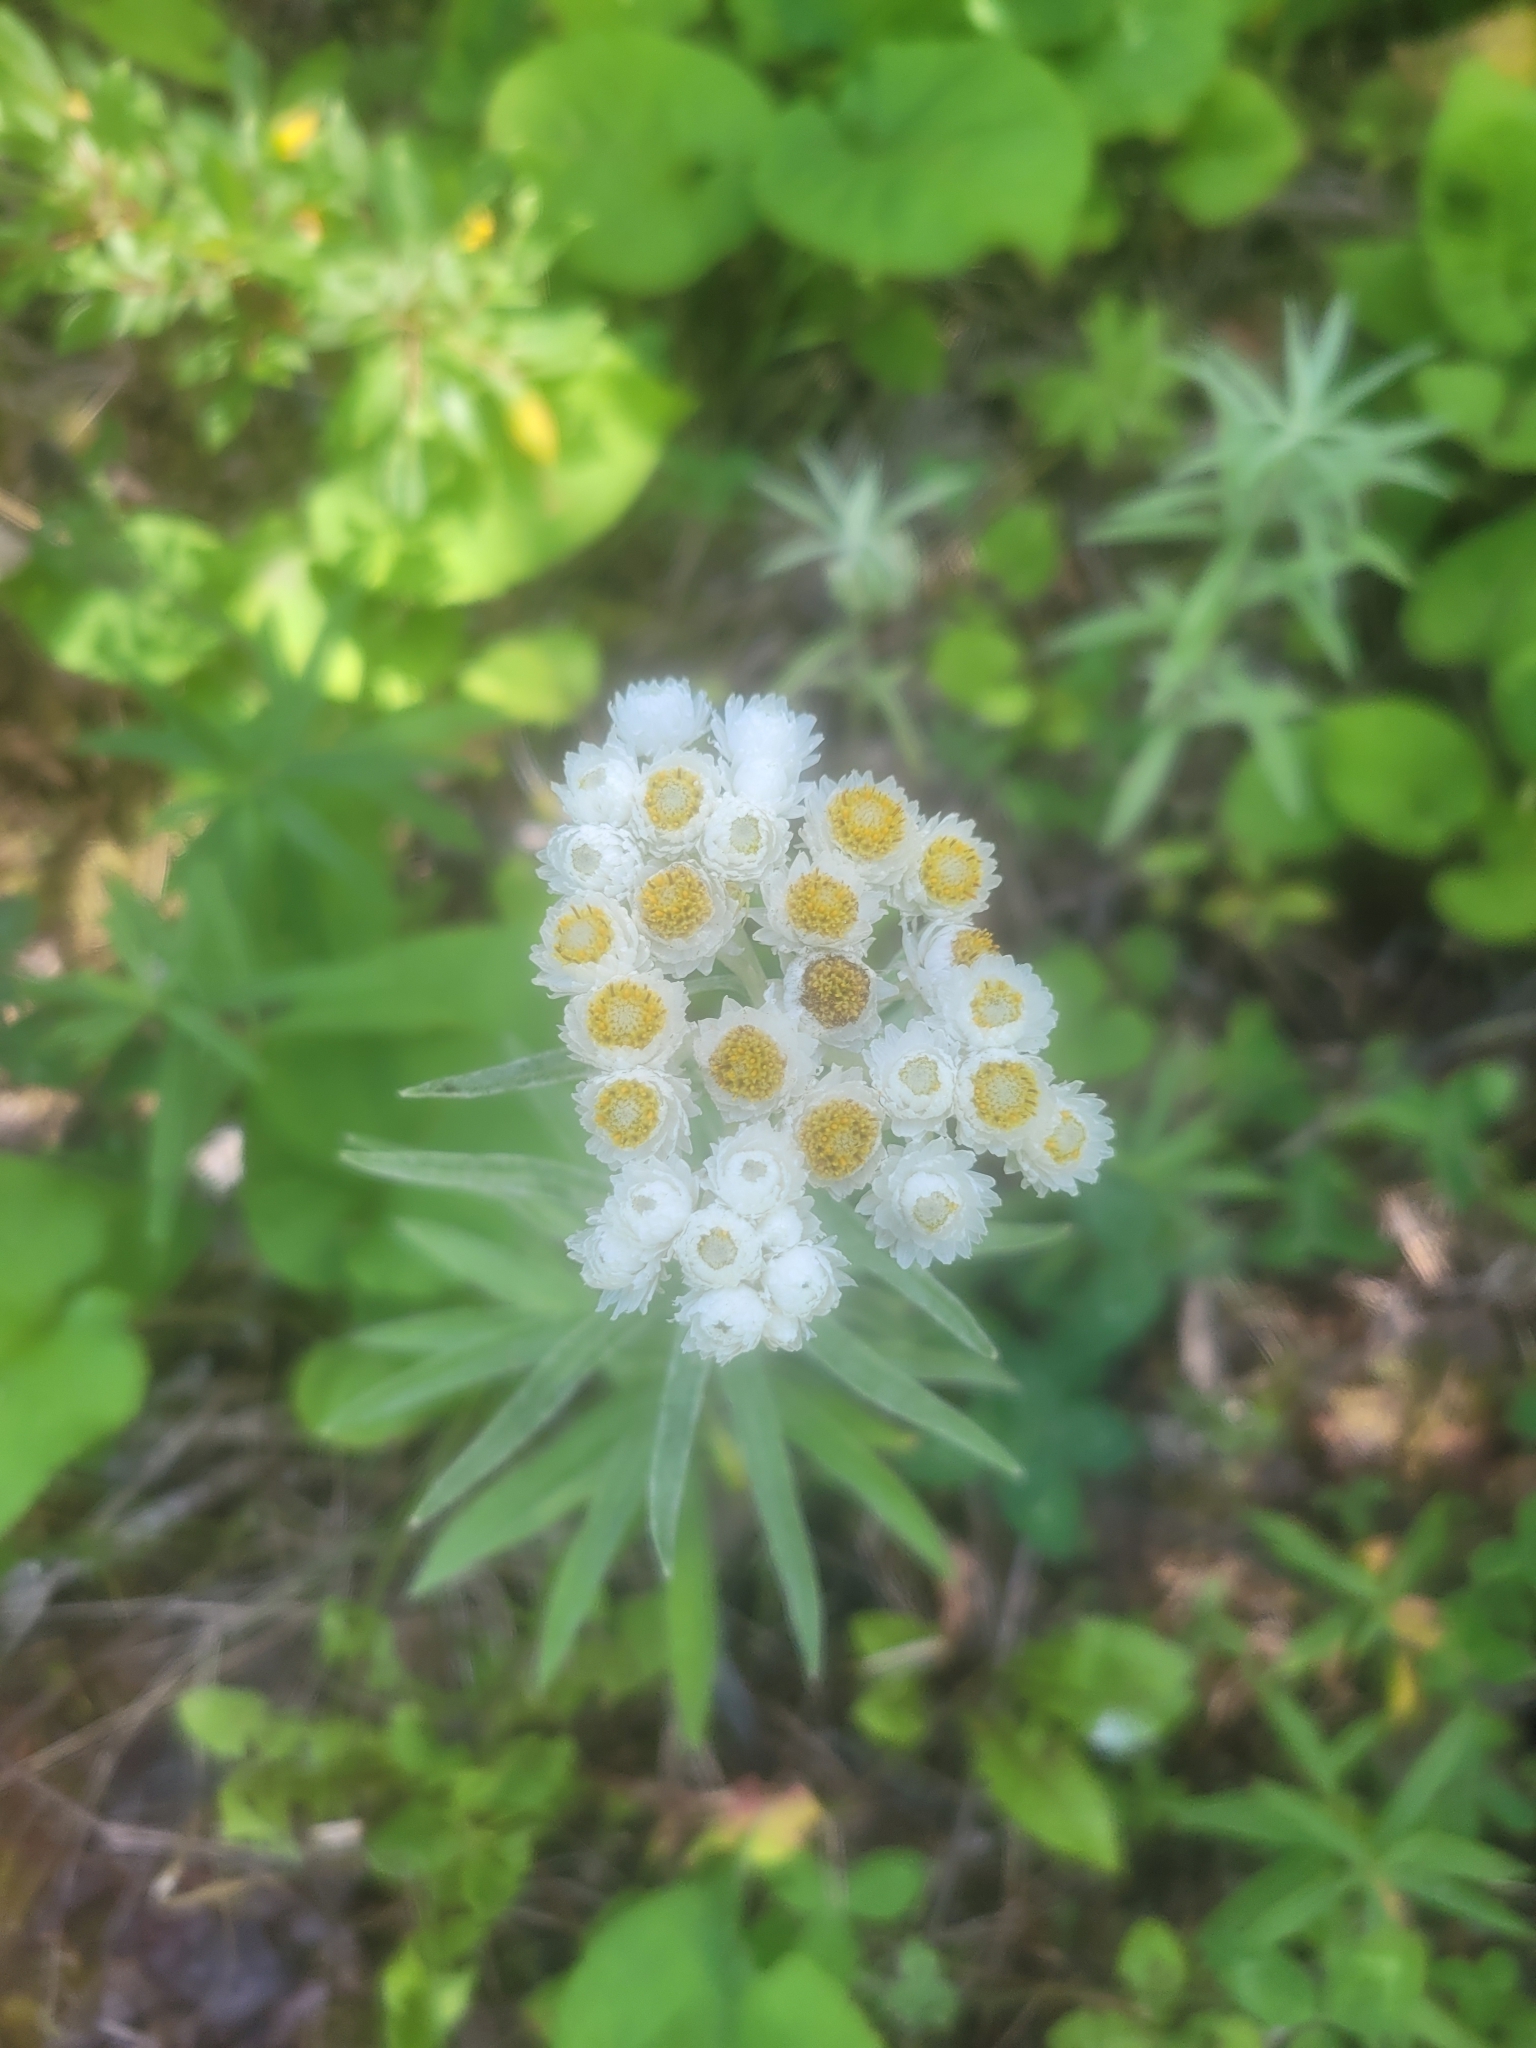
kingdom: Plantae
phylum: Tracheophyta
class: Magnoliopsida
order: Asterales
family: Asteraceae
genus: Anaphalis
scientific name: Anaphalis margaritacea
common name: Pearly everlasting
